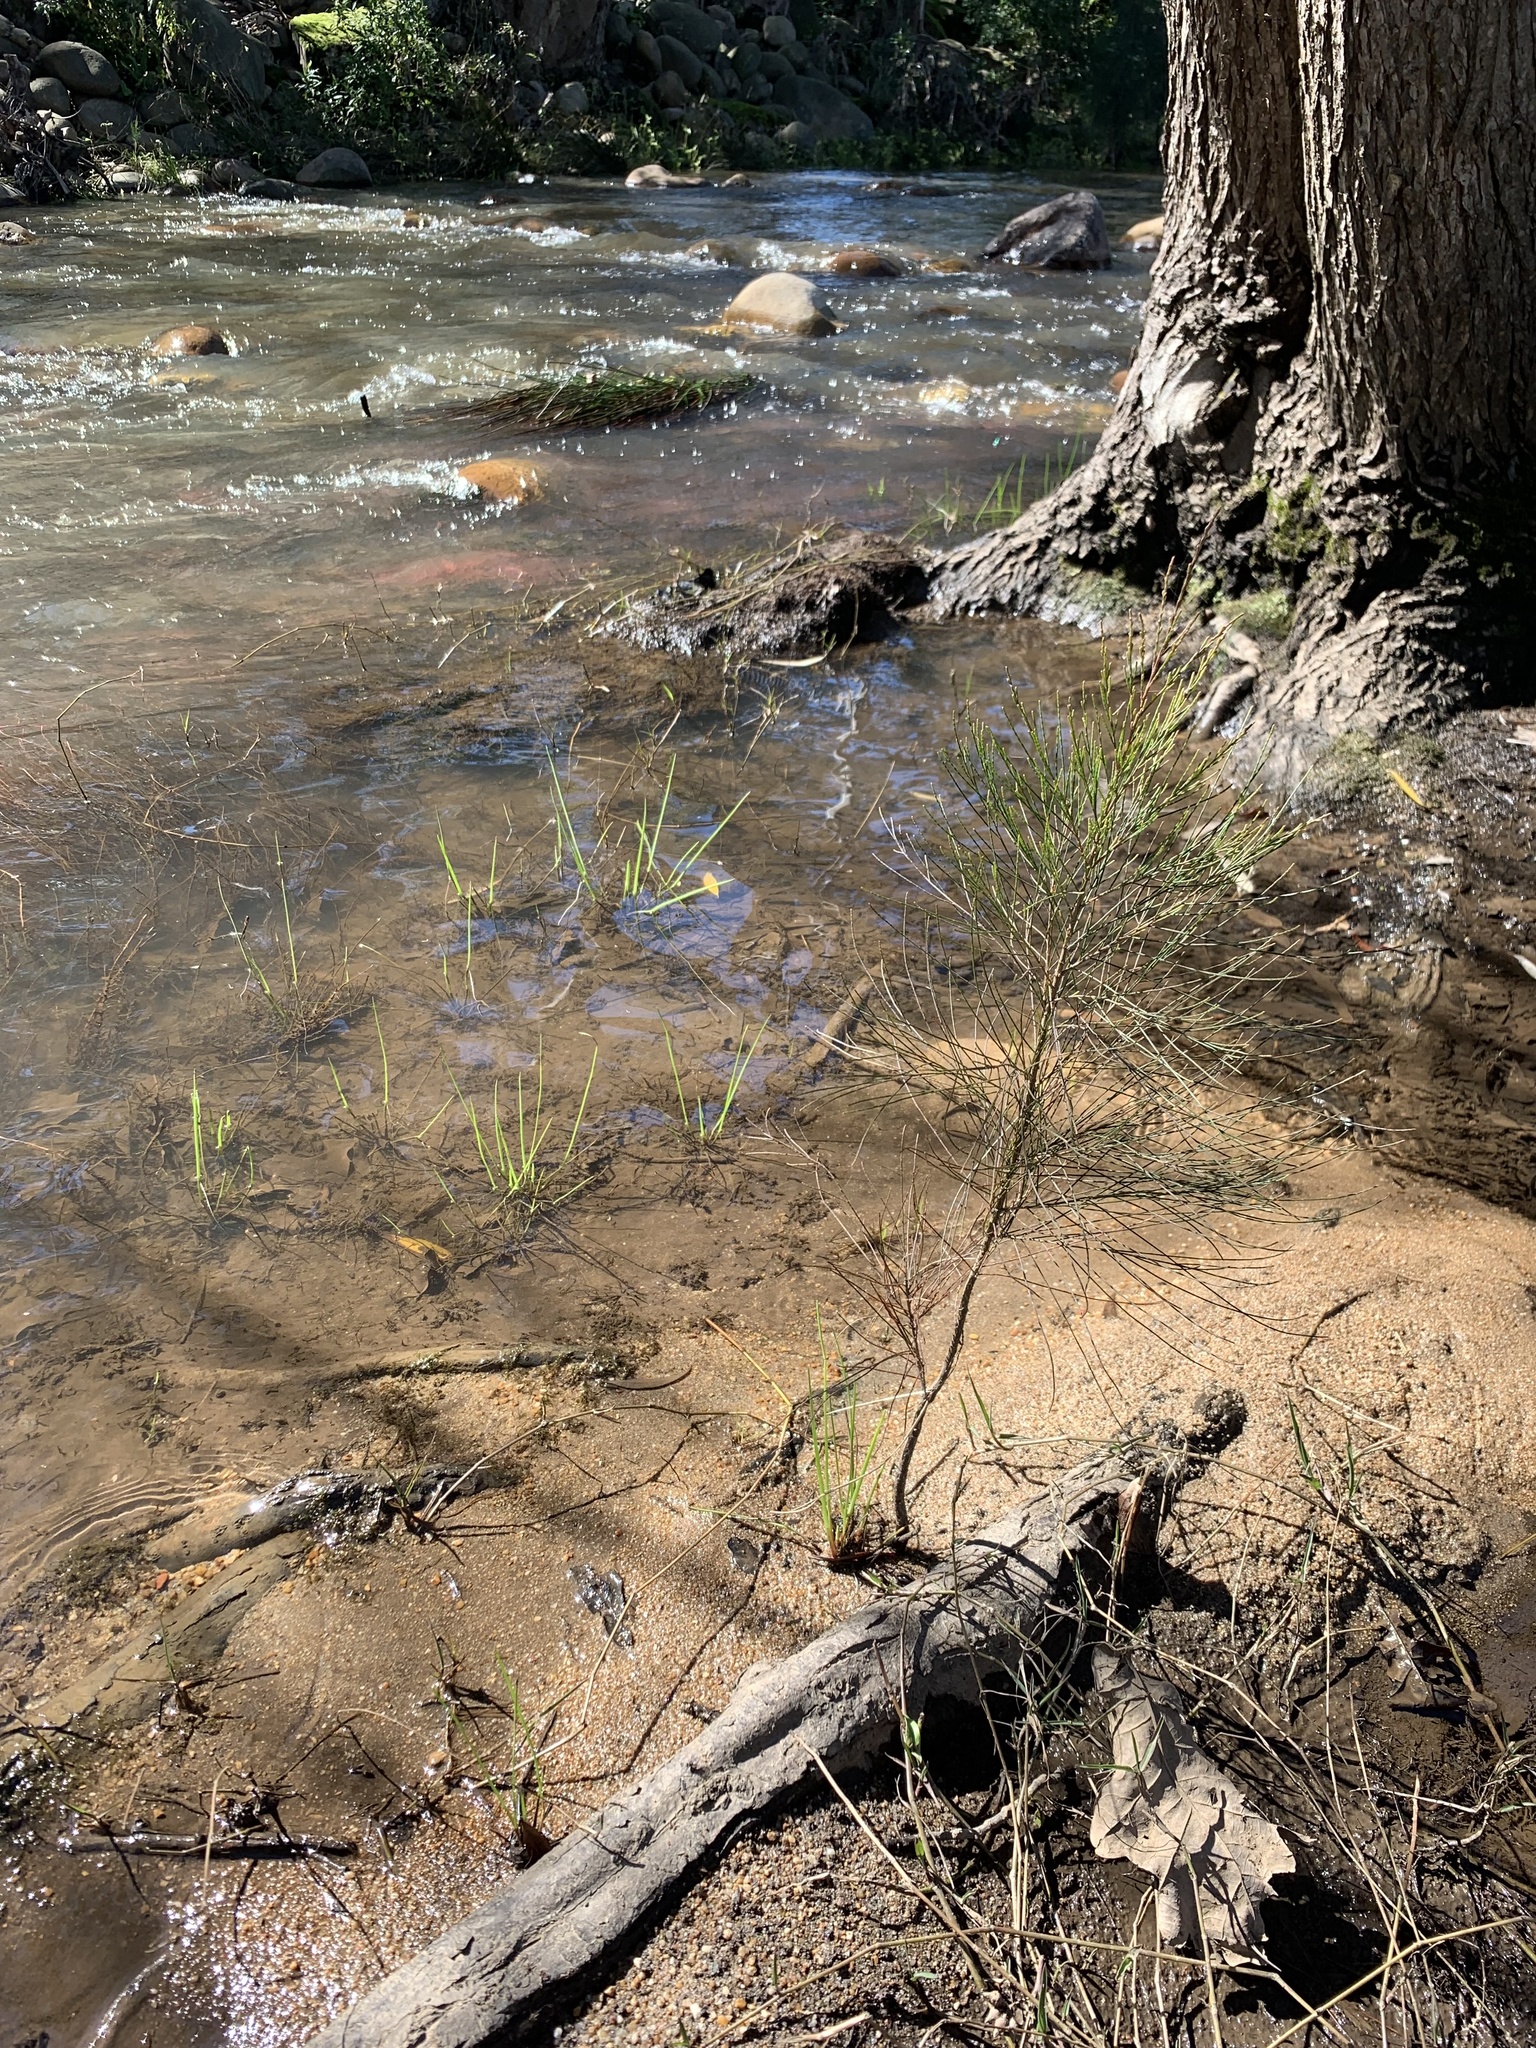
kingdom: Plantae
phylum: Tracheophyta
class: Magnoliopsida
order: Fagales
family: Casuarinaceae
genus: Casuarina
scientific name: Casuarina cunninghamiana
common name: River sheoak
